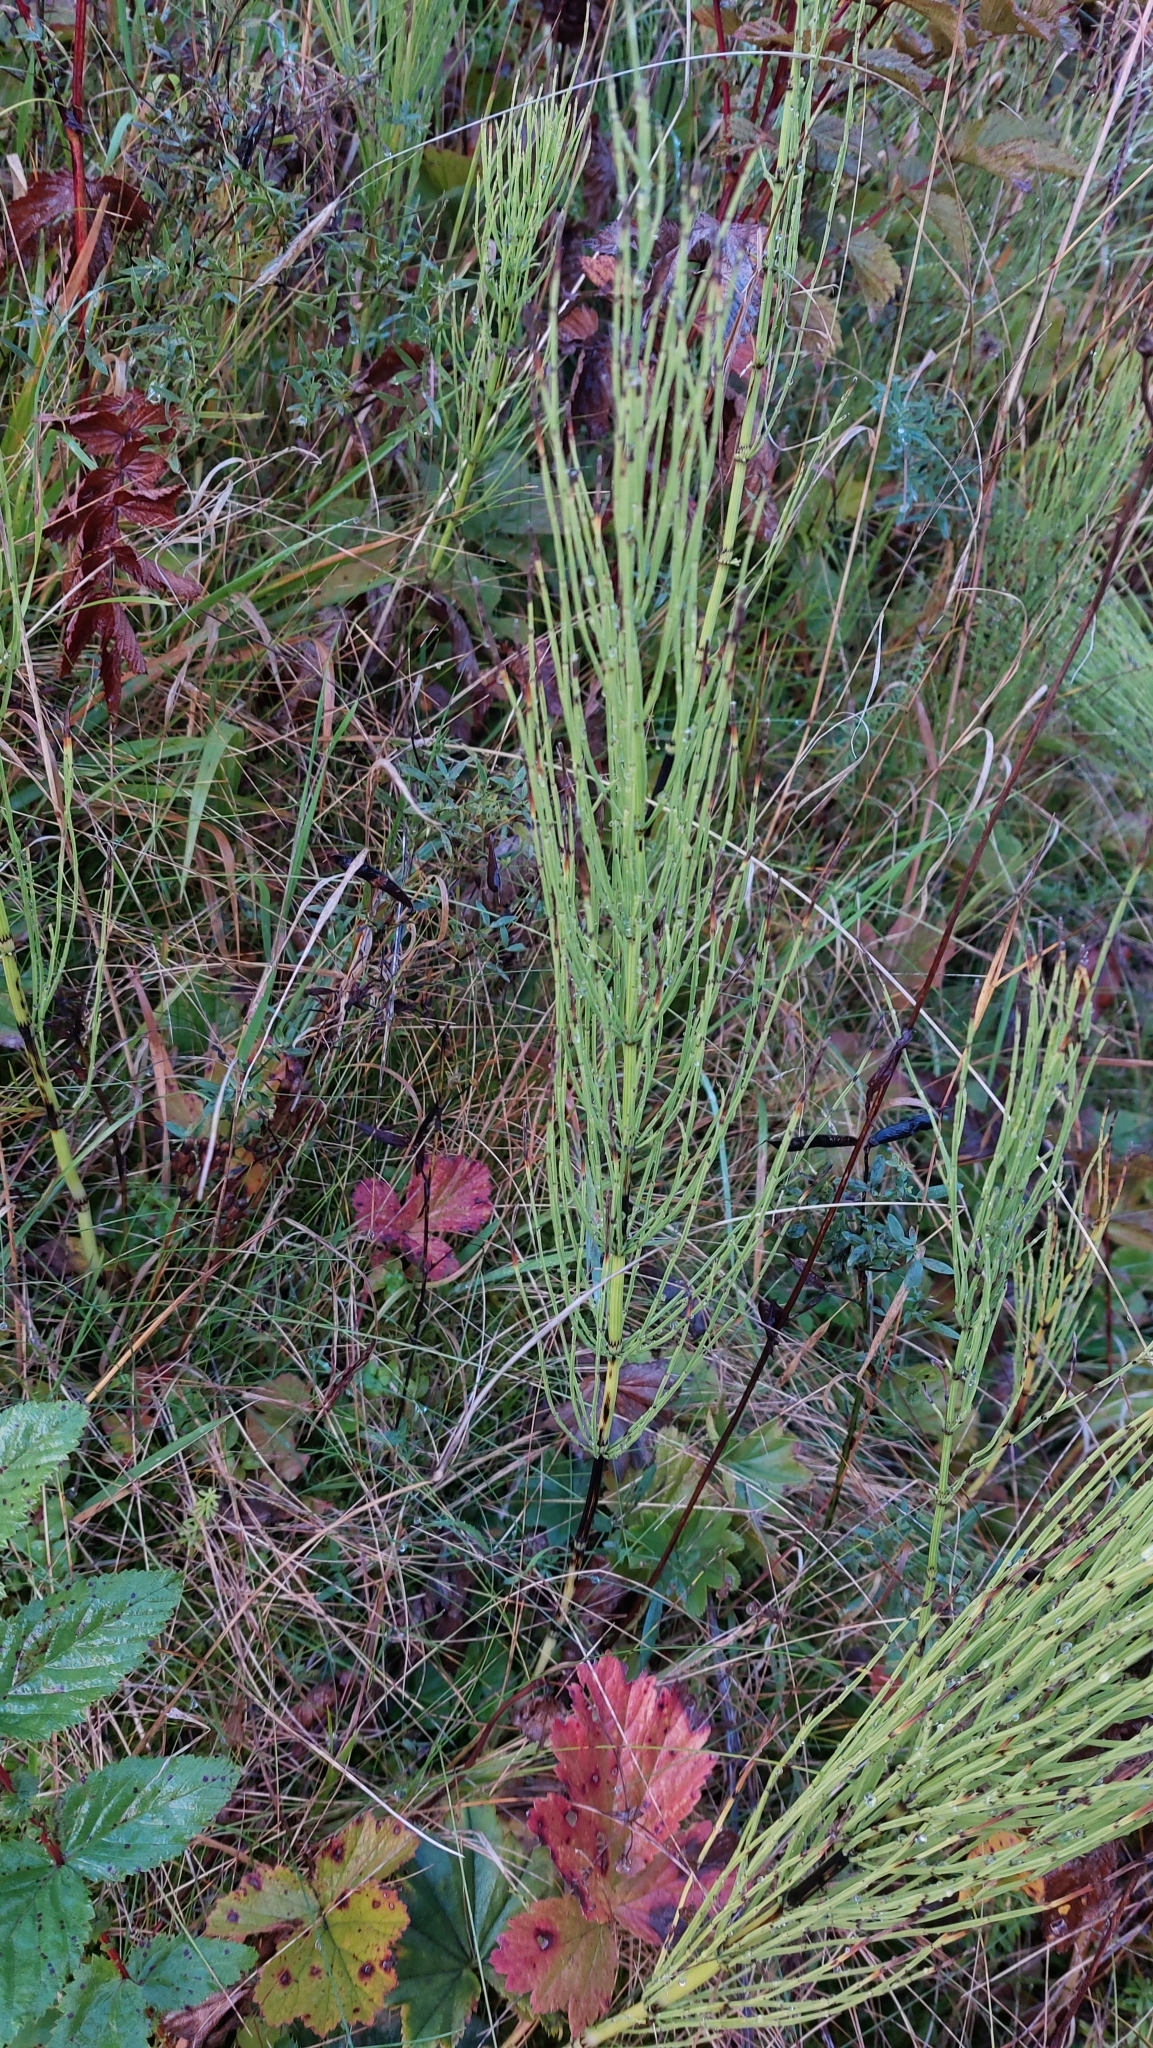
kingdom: Plantae
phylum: Tracheophyta
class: Polypodiopsida
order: Equisetales
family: Equisetaceae
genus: Equisetum
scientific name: Equisetum arvense
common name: Field horsetail
